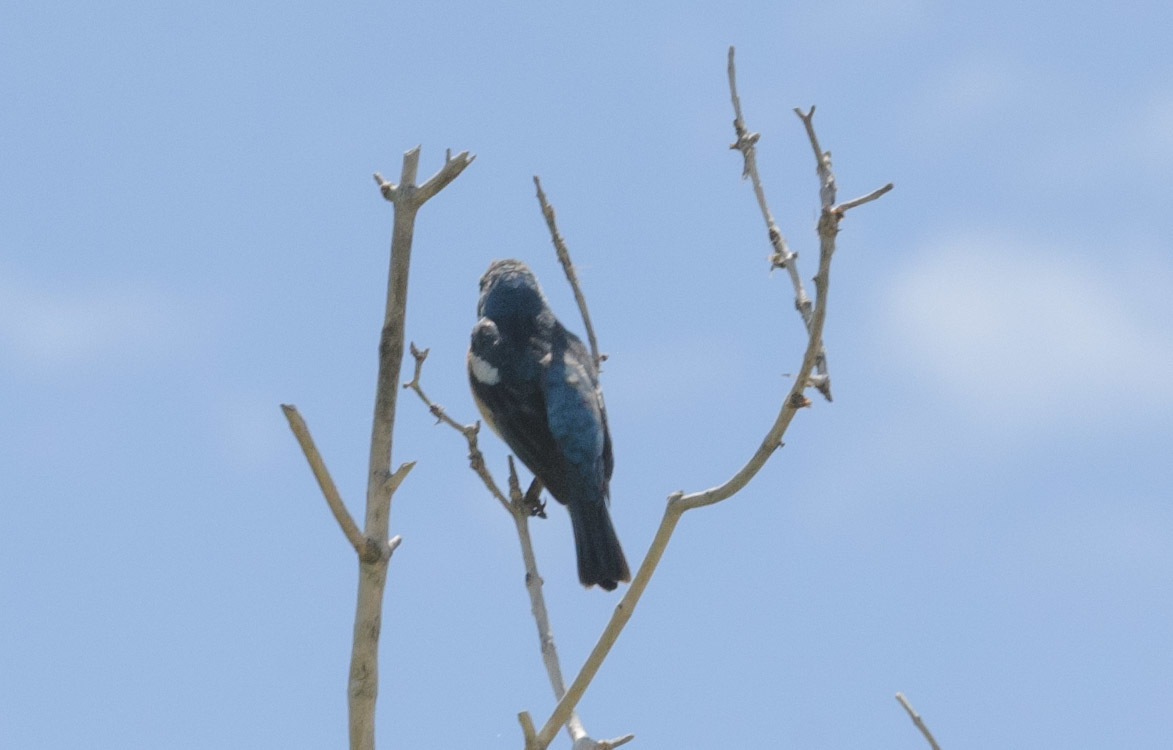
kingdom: Animalia
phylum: Chordata
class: Aves
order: Passeriformes
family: Cardinalidae
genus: Passerina
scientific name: Passerina amoena
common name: Lazuli bunting
